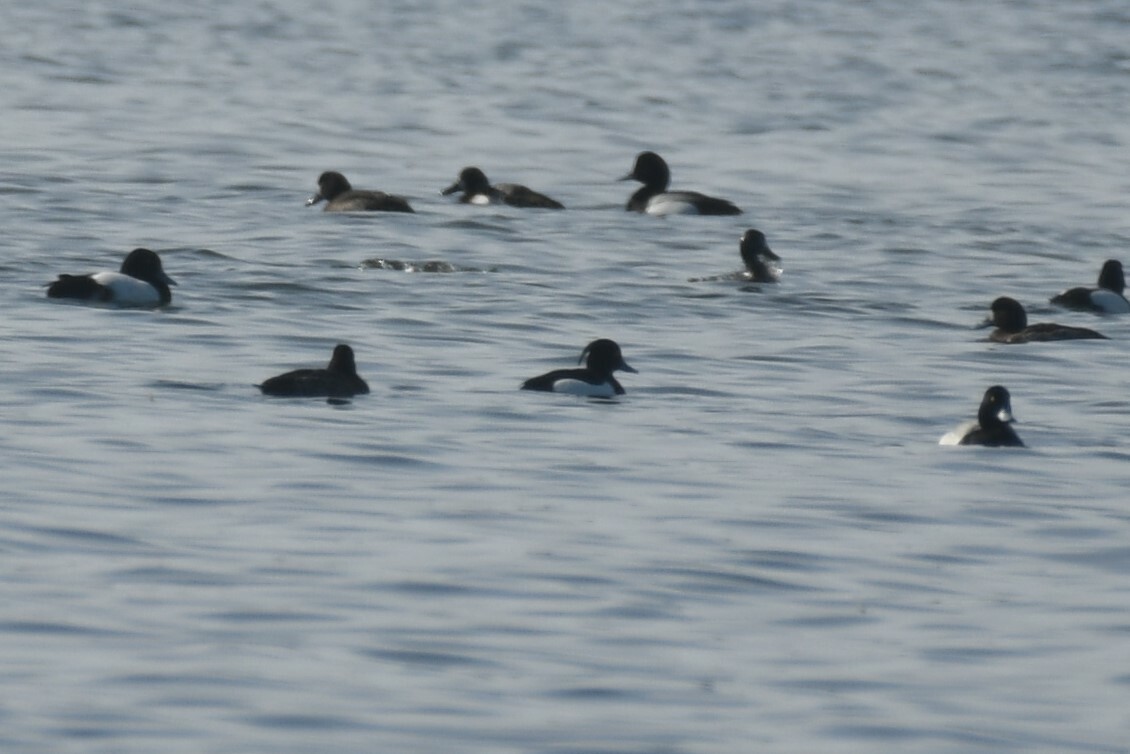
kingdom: Animalia
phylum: Chordata
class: Aves
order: Anseriformes
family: Anatidae
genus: Aythya
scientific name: Aythya fuligula
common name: Tufted duck
